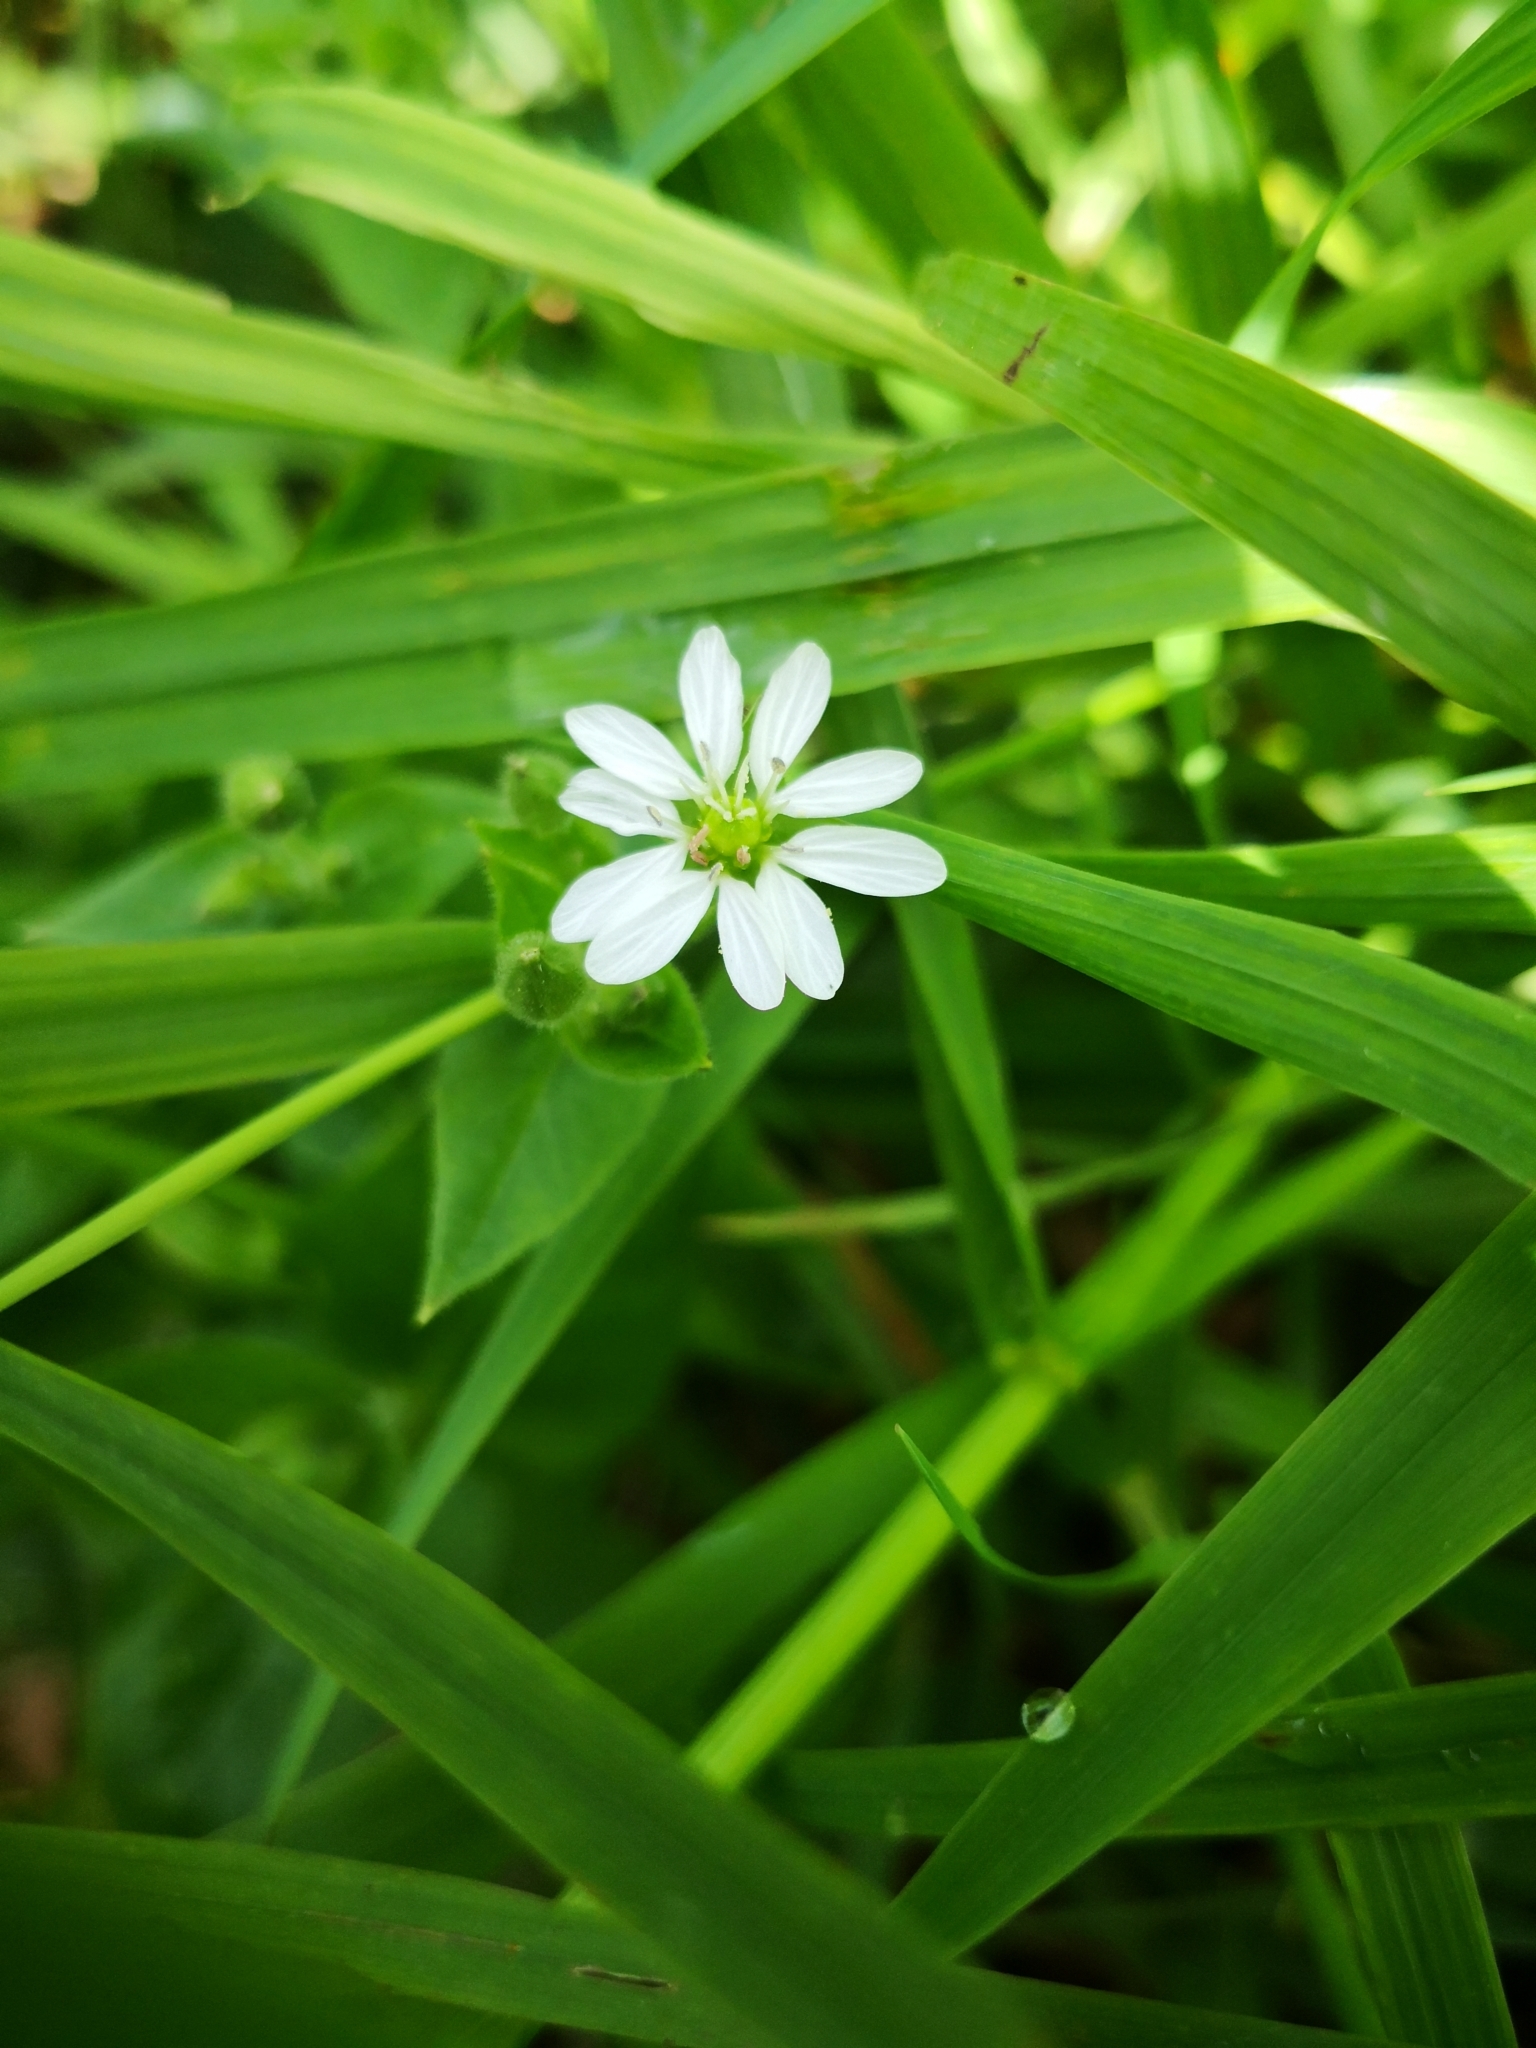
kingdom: Plantae
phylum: Tracheophyta
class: Magnoliopsida
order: Caryophyllales
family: Caryophyllaceae
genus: Stellaria
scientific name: Stellaria aquatica
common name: Water chickweed
